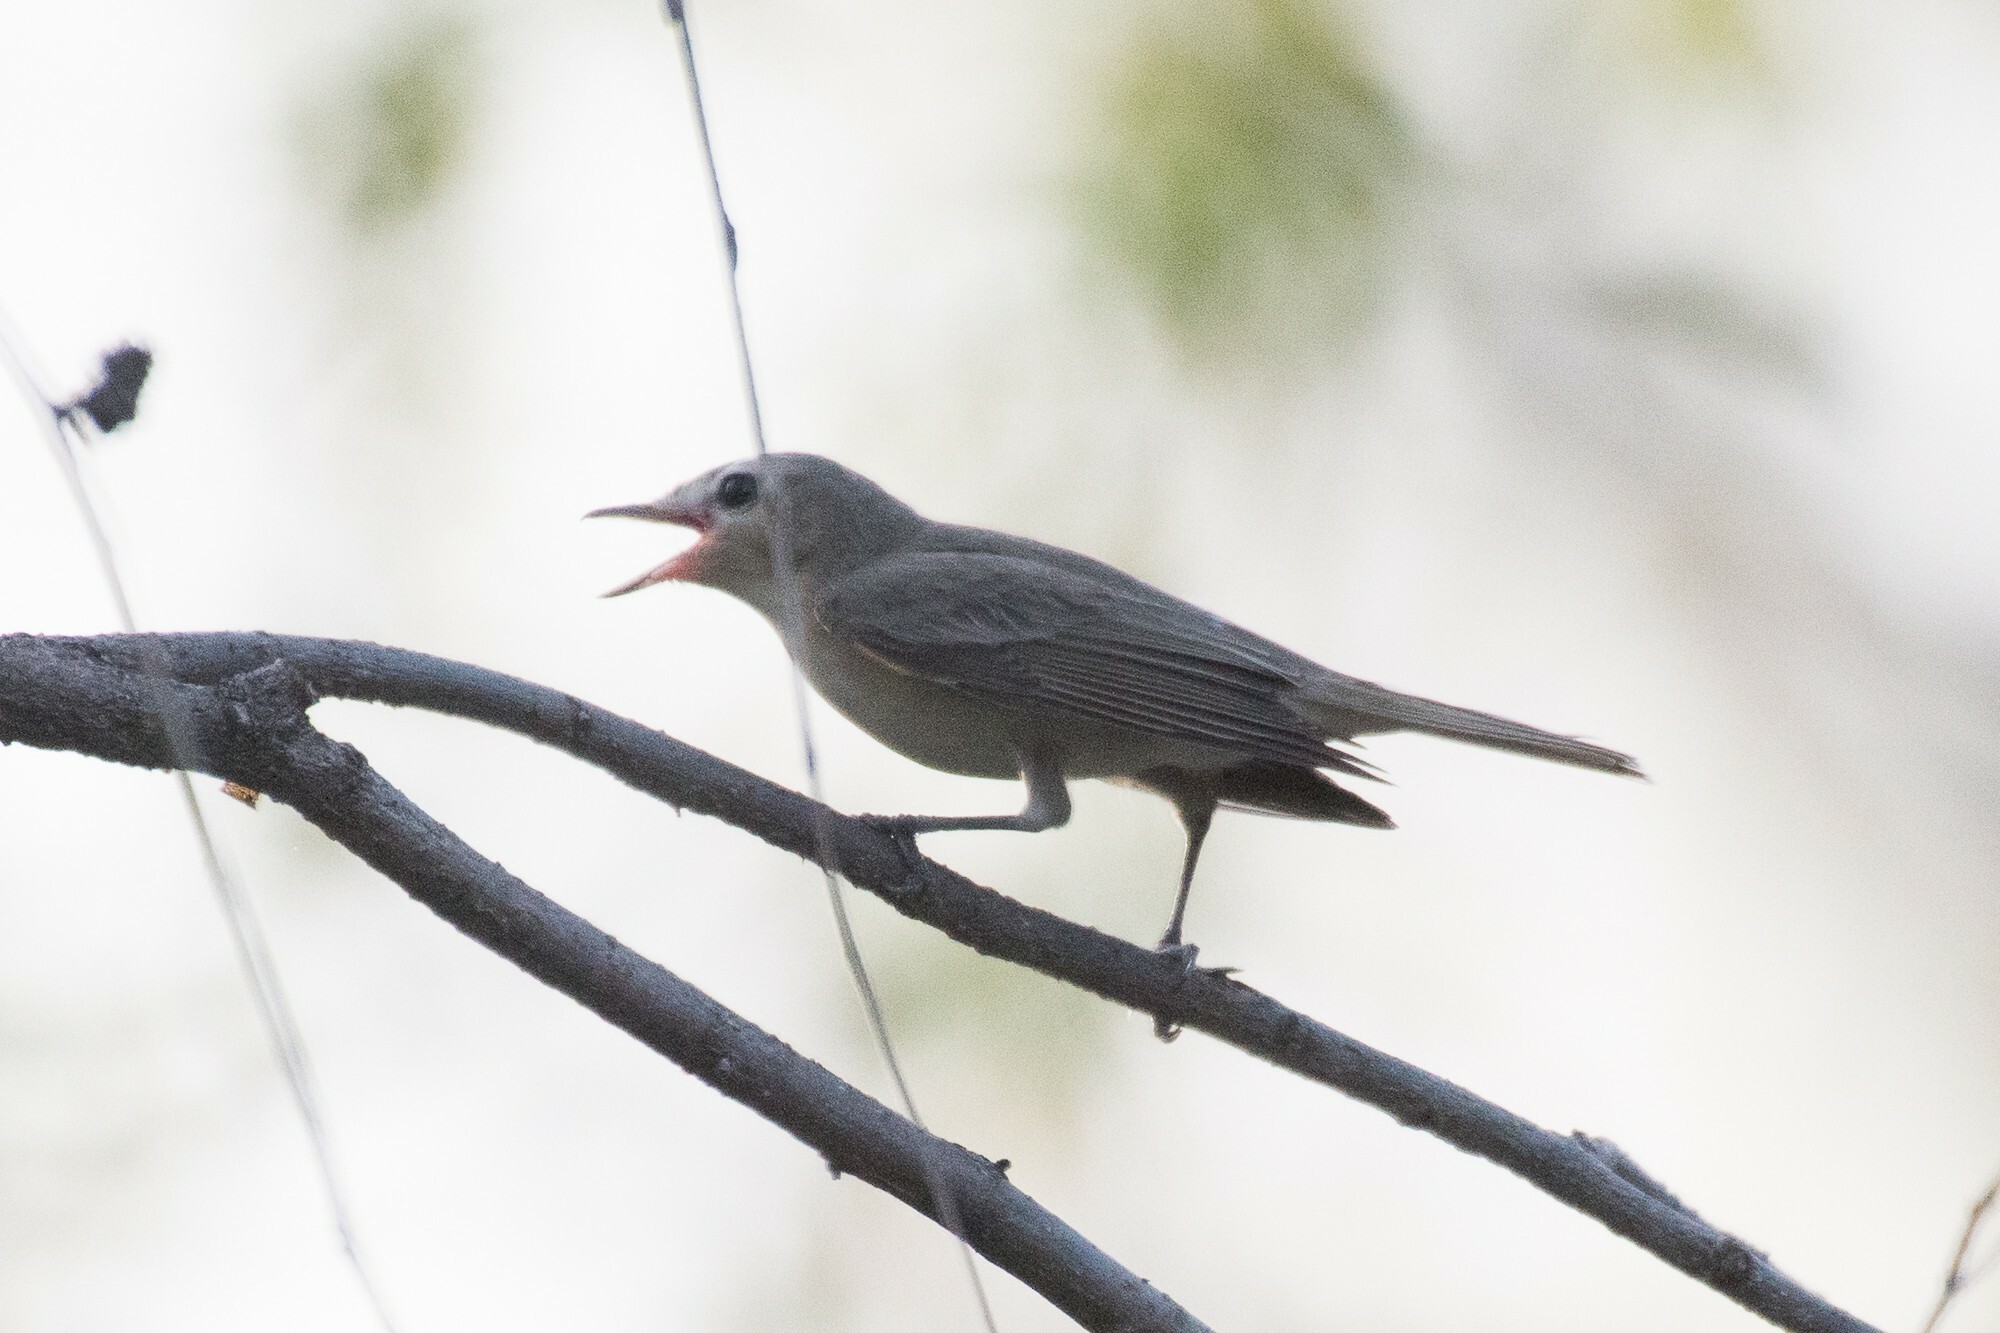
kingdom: Animalia
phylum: Chordata
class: Aves
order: Passeriformes
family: Vireonidae
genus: Vireo
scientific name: Vireo gilvus
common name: Warbling vireo
